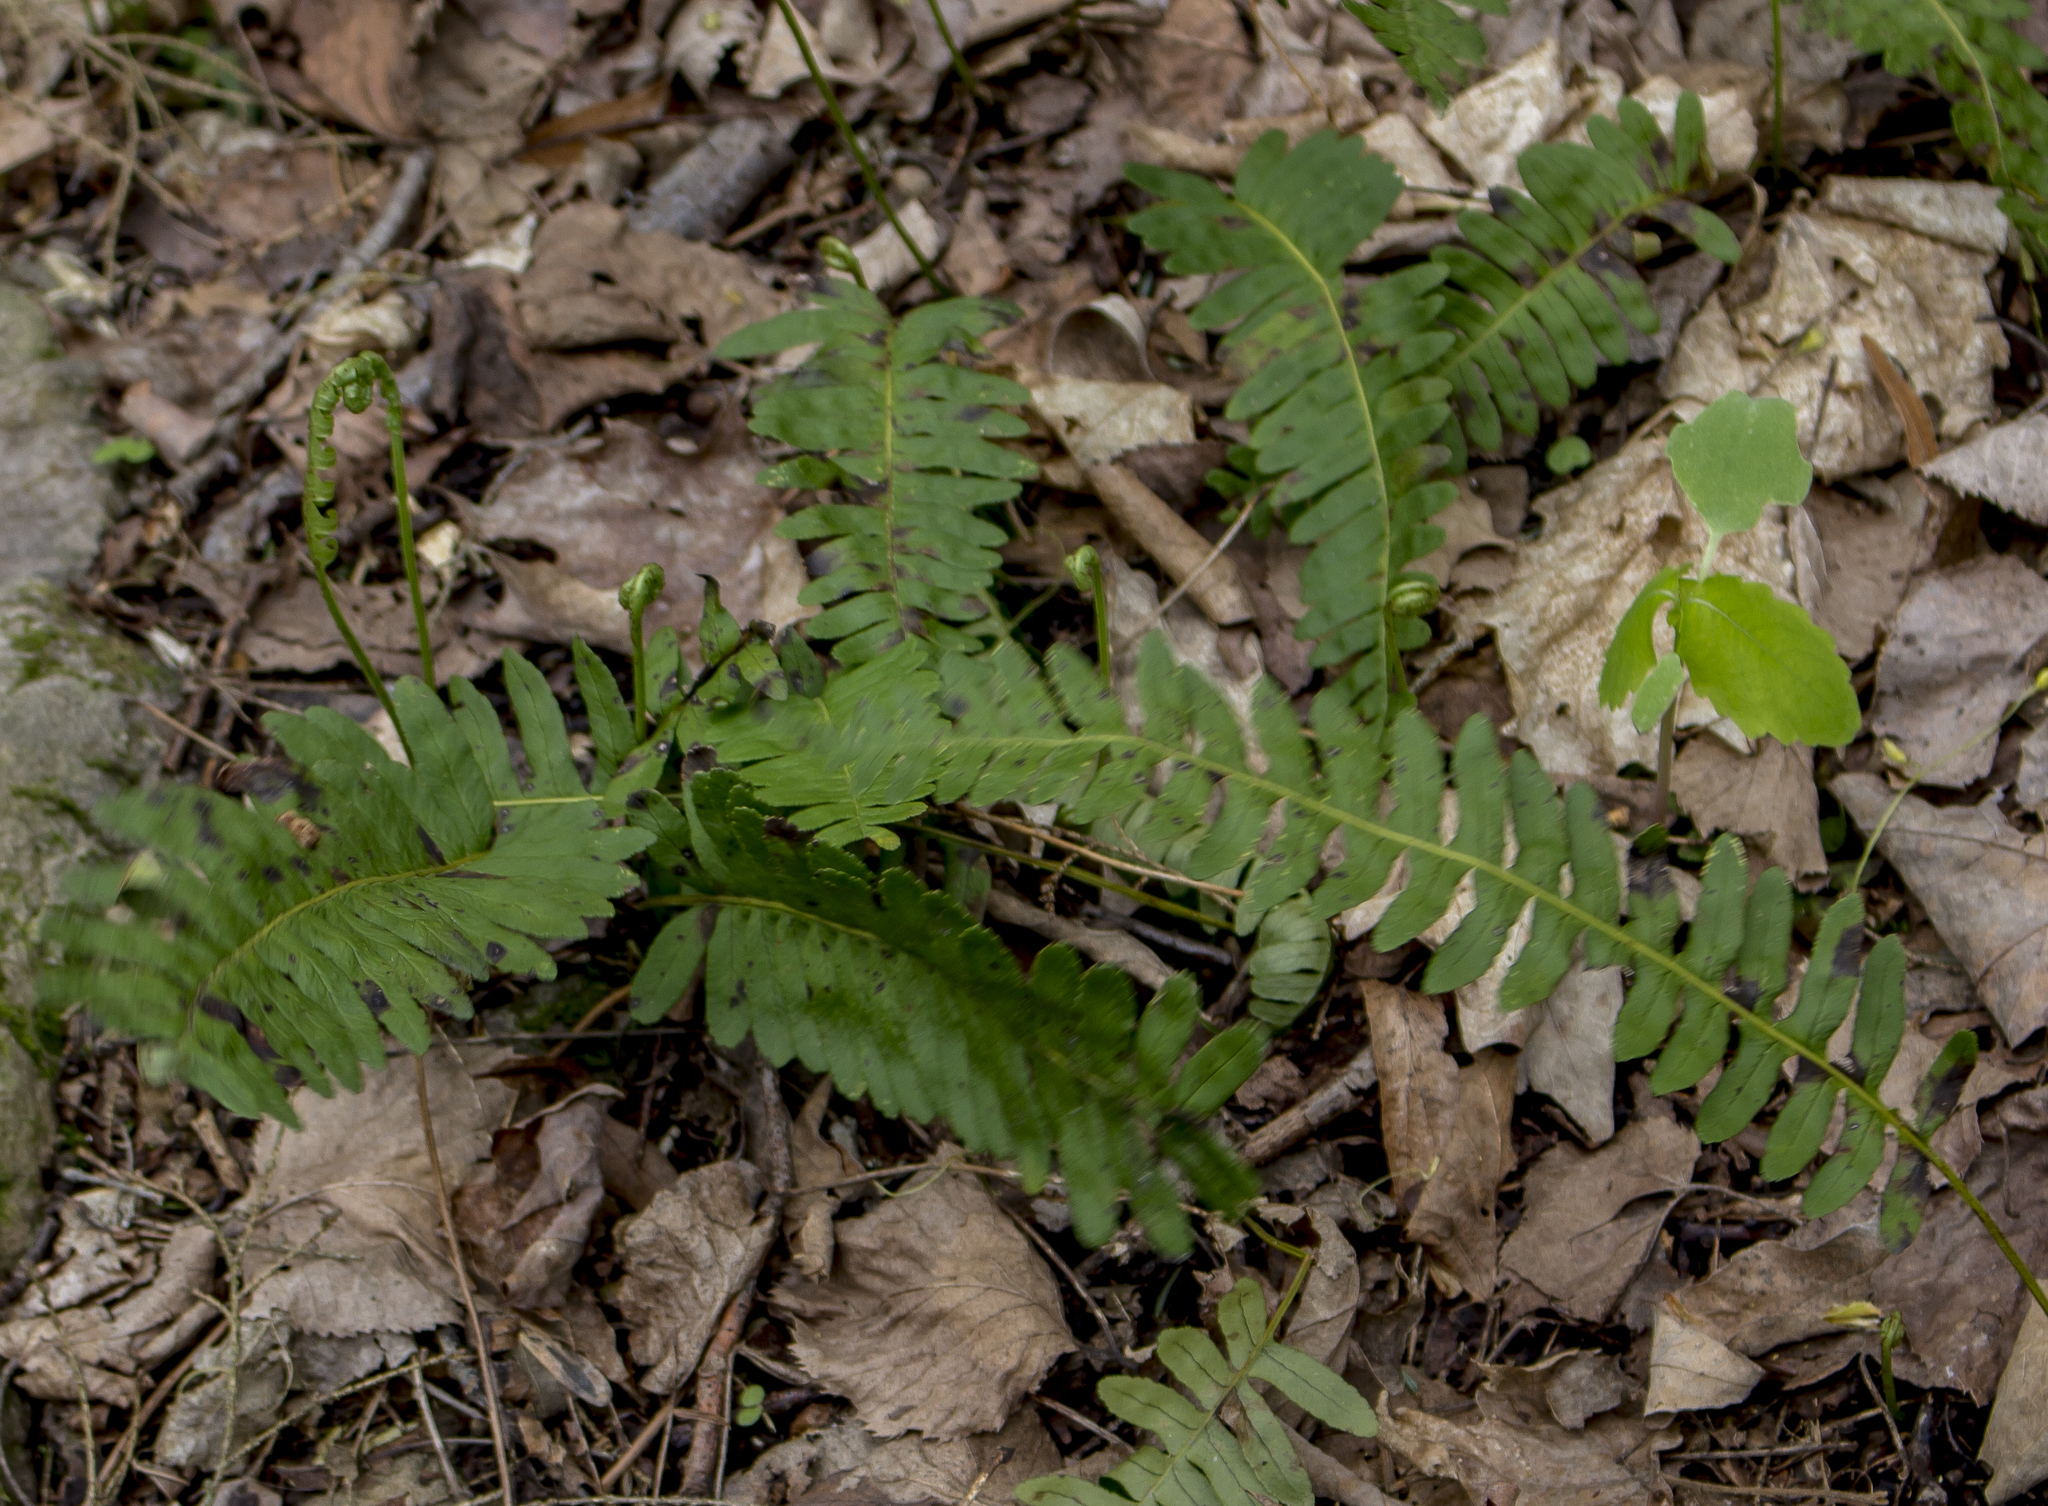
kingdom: Plantae
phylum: Tracheophyta
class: Polypodiopsida
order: Polypodiales
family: Polypodiaceae
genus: Polypodium
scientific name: Polypodium virginianum
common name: American wall fern
